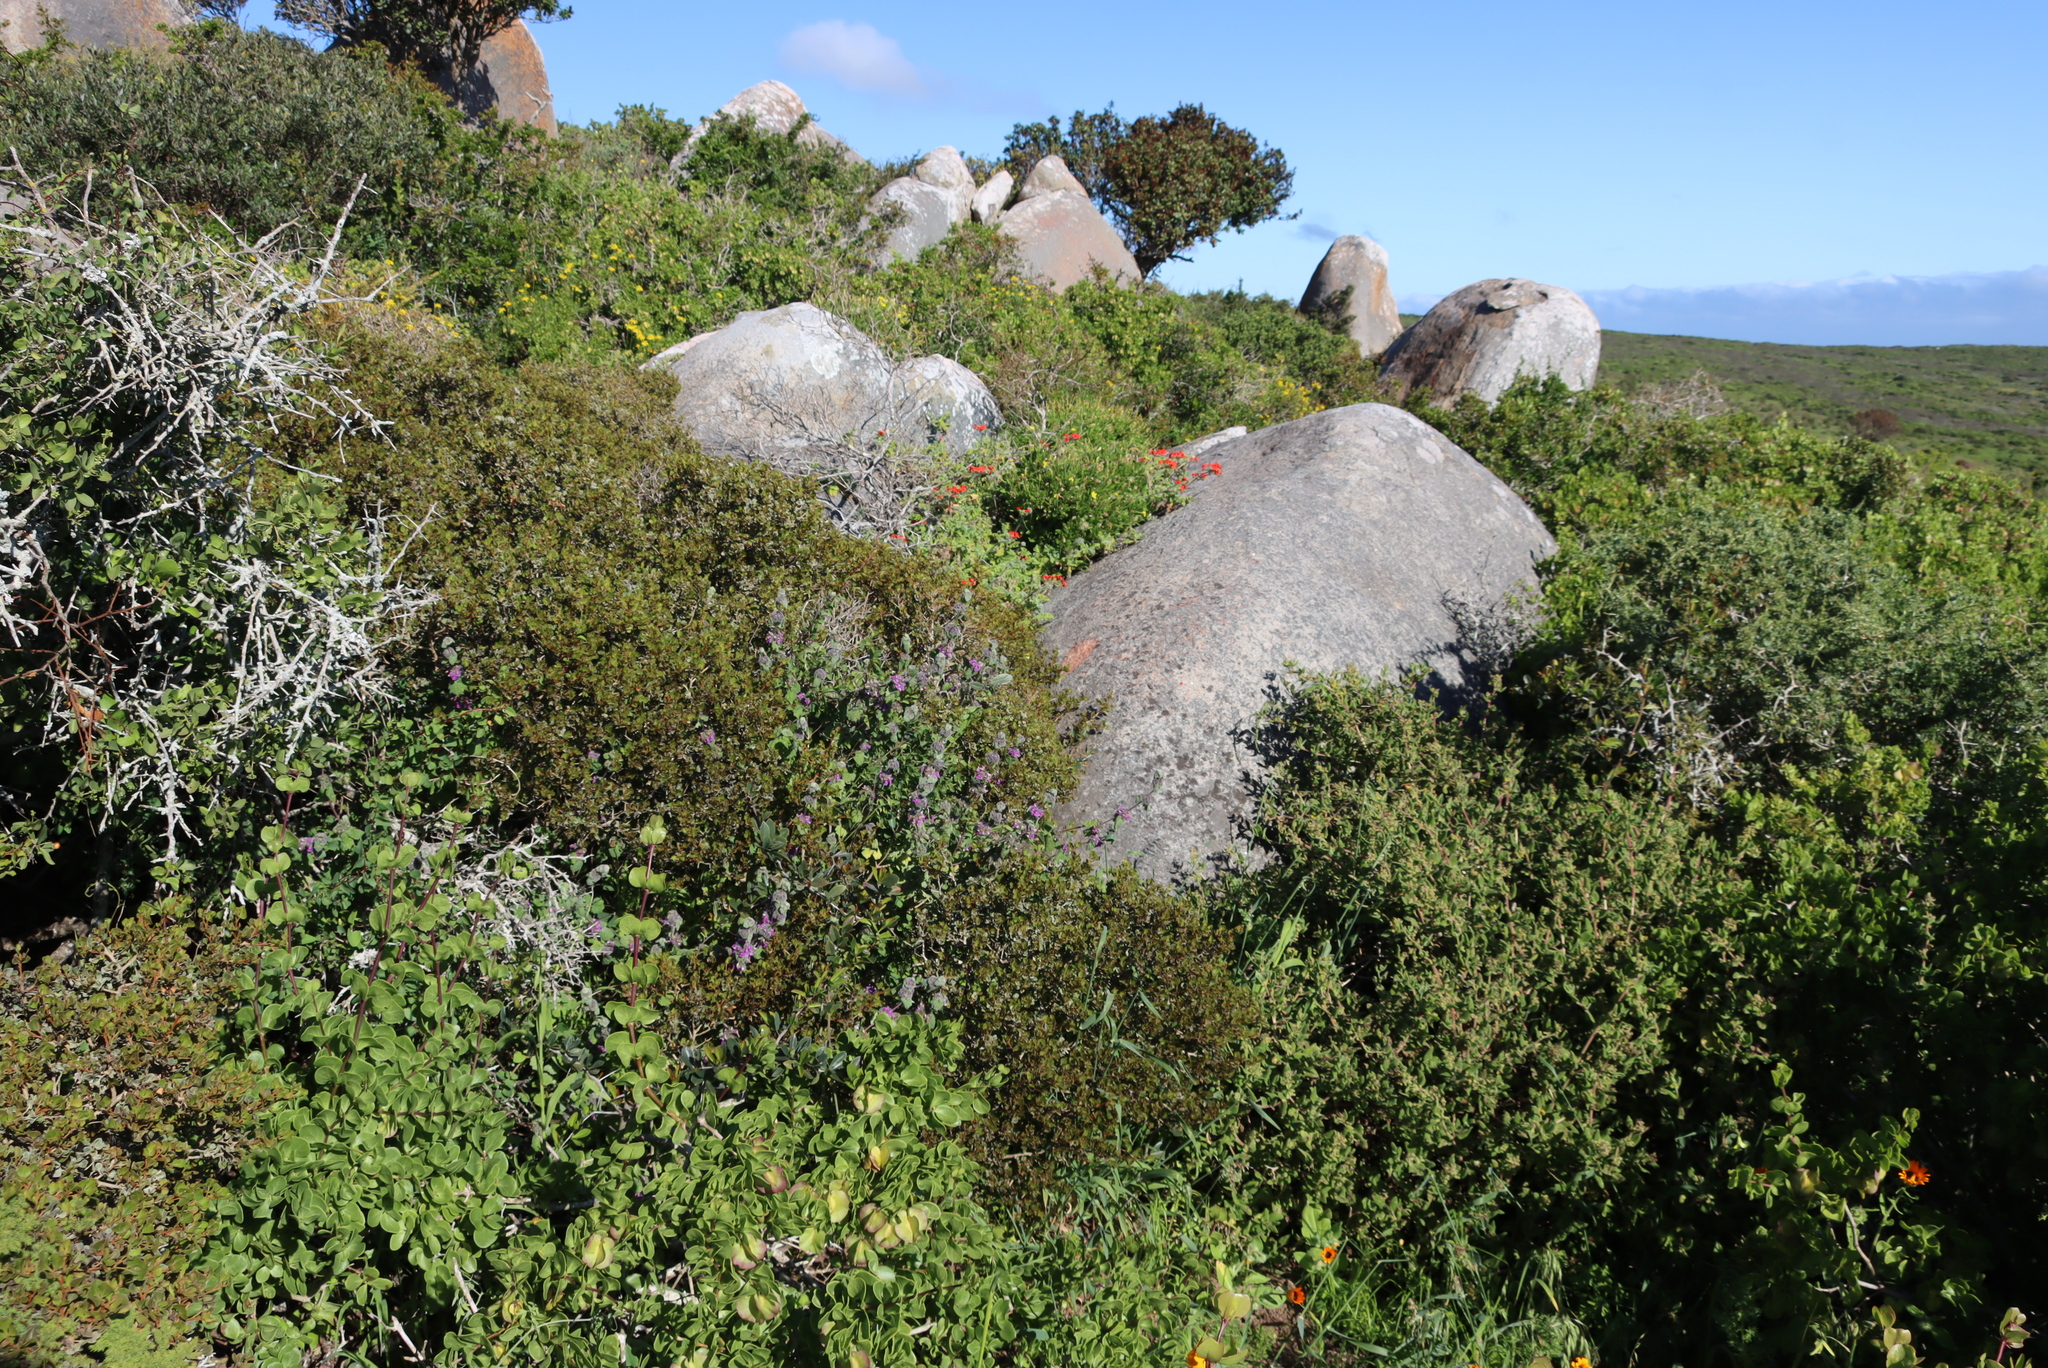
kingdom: Plantae
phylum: Tracheophyta
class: Magnoliopsida
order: Lamiales
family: Lamiaceae
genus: Pseudodictamnus
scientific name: Pseudodictamnus africanus
